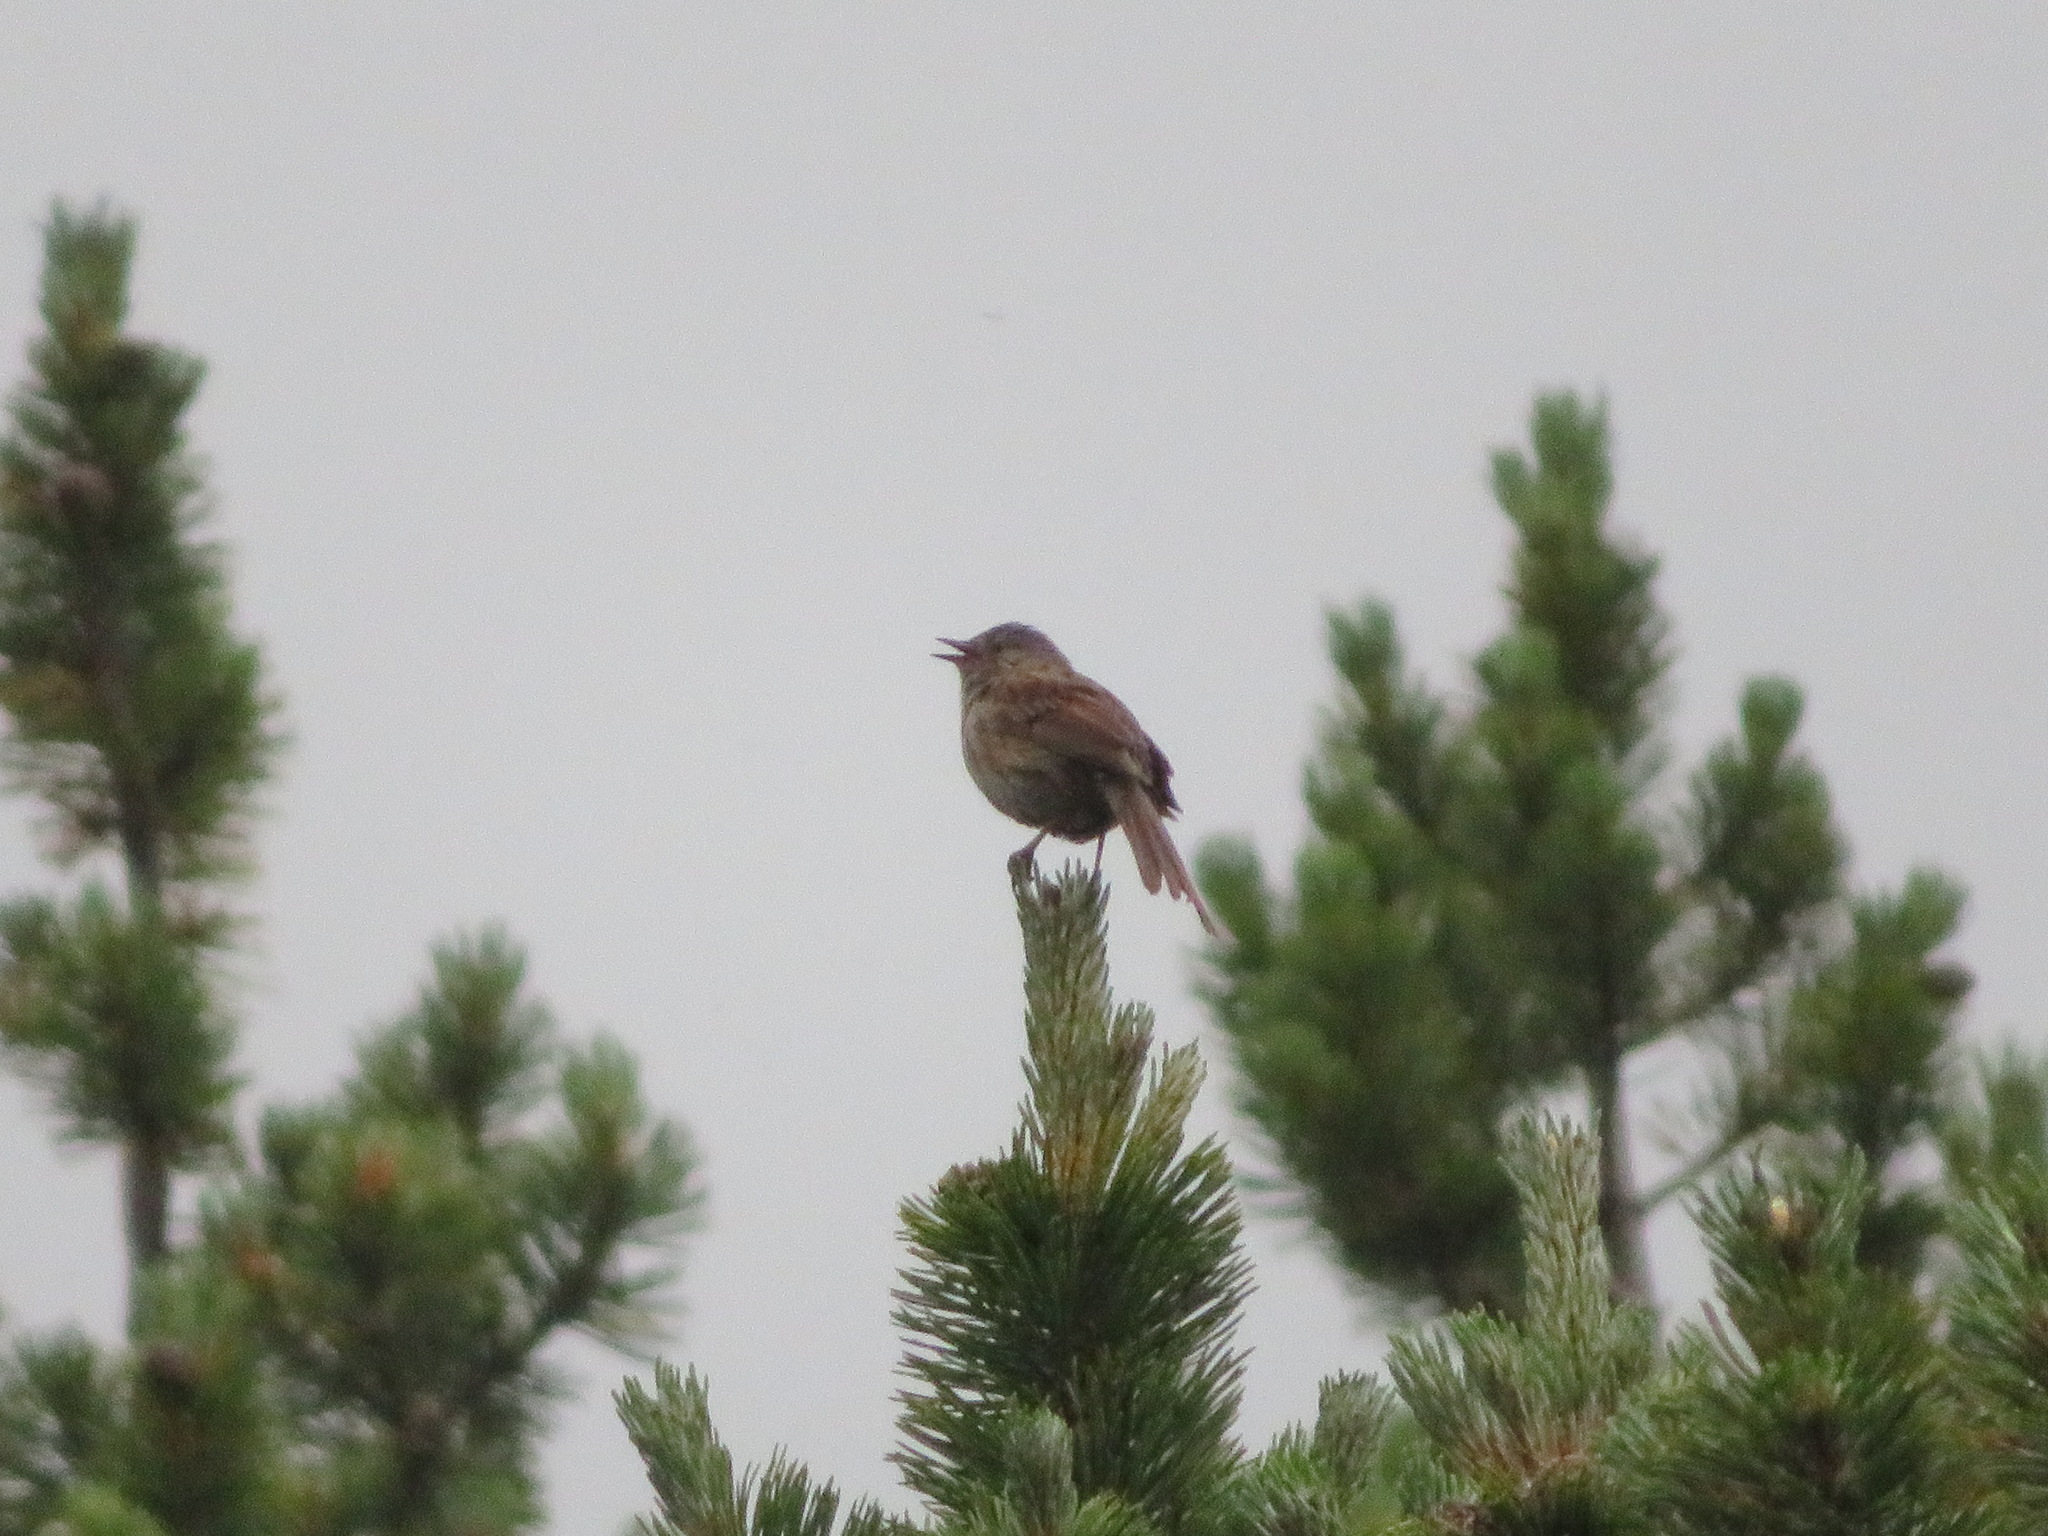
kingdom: Animalia
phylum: Chordata
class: Aves
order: Passeriformes
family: Prunellidae
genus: Prunella
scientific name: Prunella modularis
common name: Dunnock
